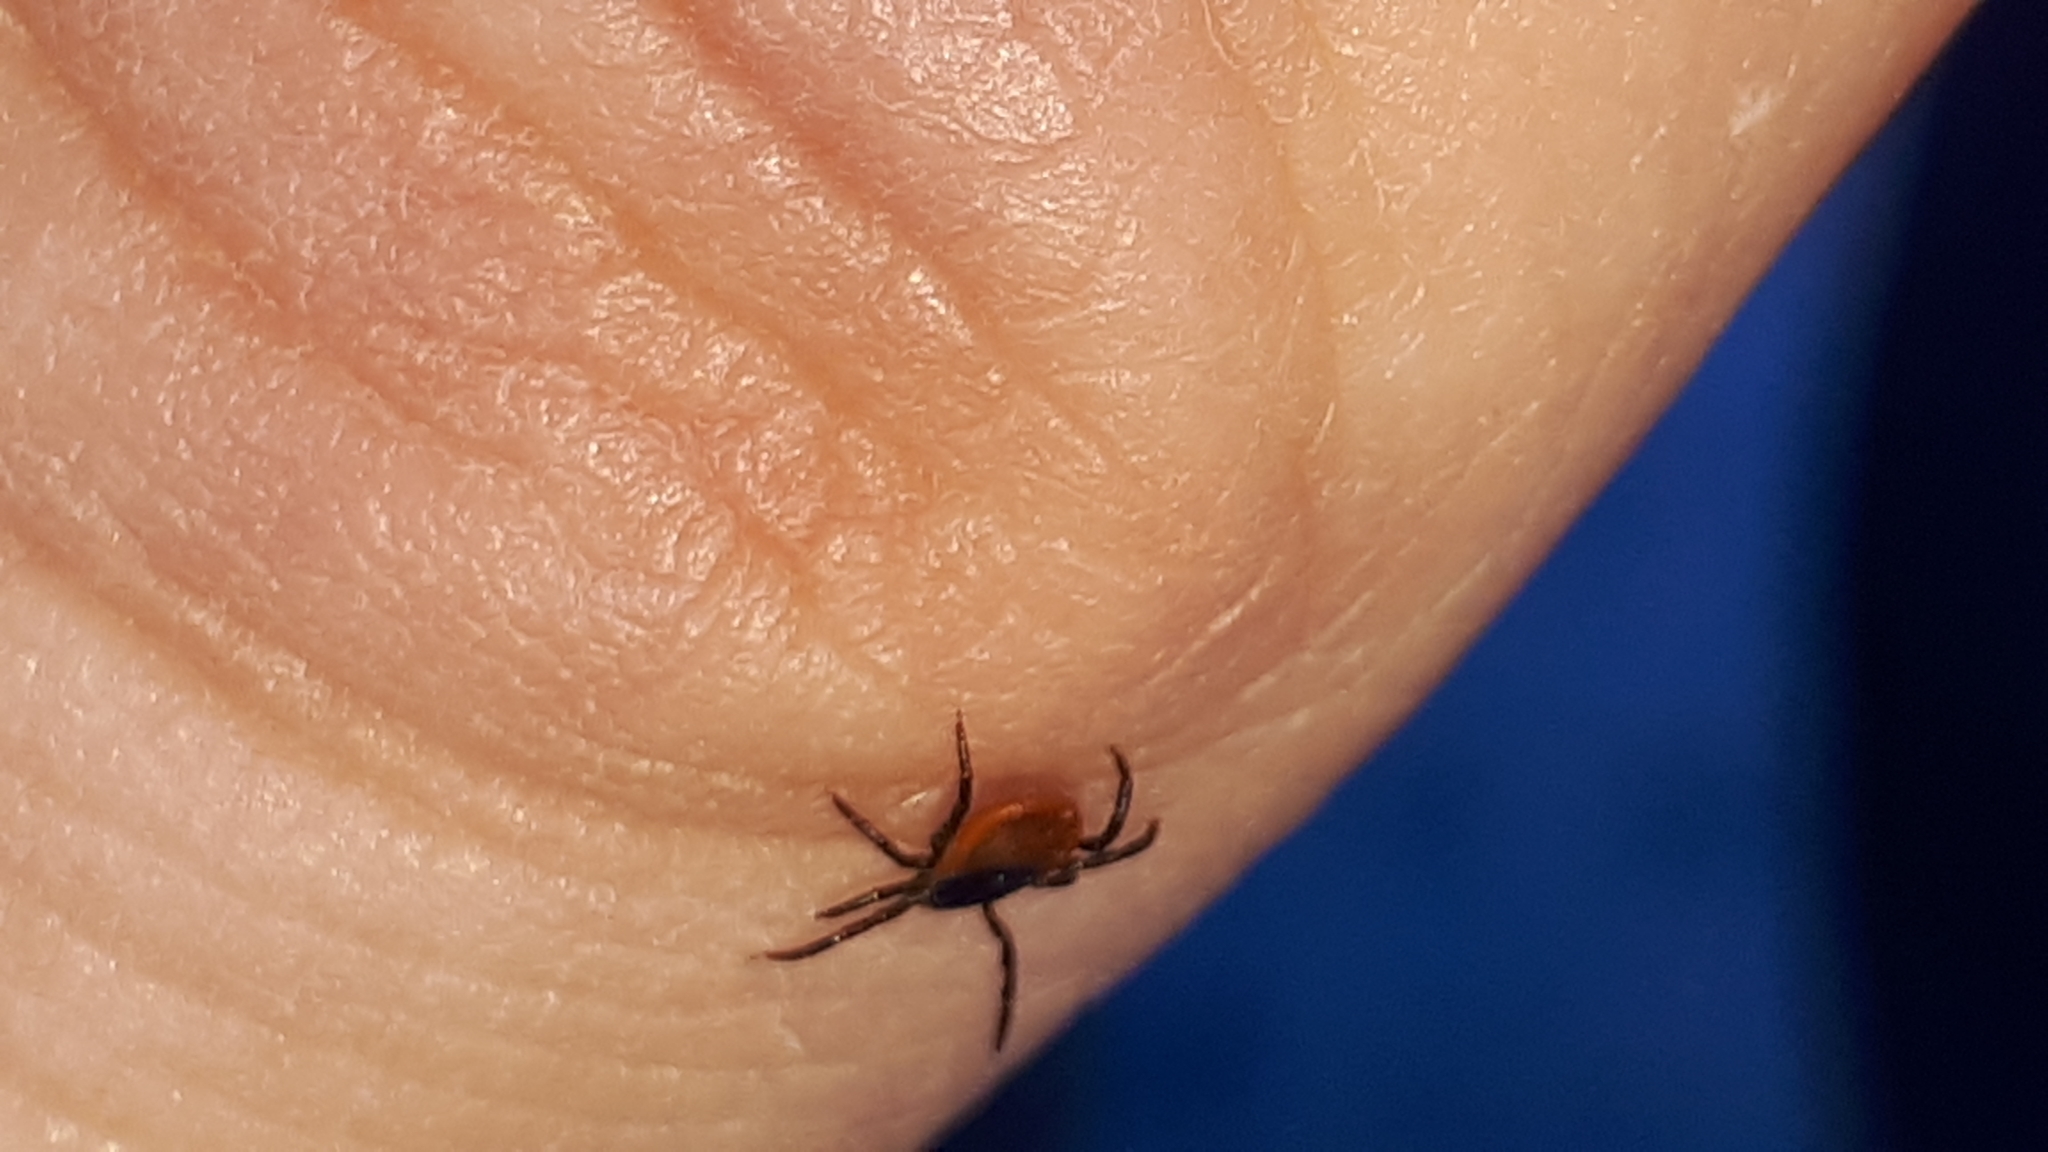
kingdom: Animalia
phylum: Arthropoda
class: Arachnida
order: Ixodida
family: Ixodidae
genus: Ixodes
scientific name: Ixodes ricinus
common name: Castor bean tick
